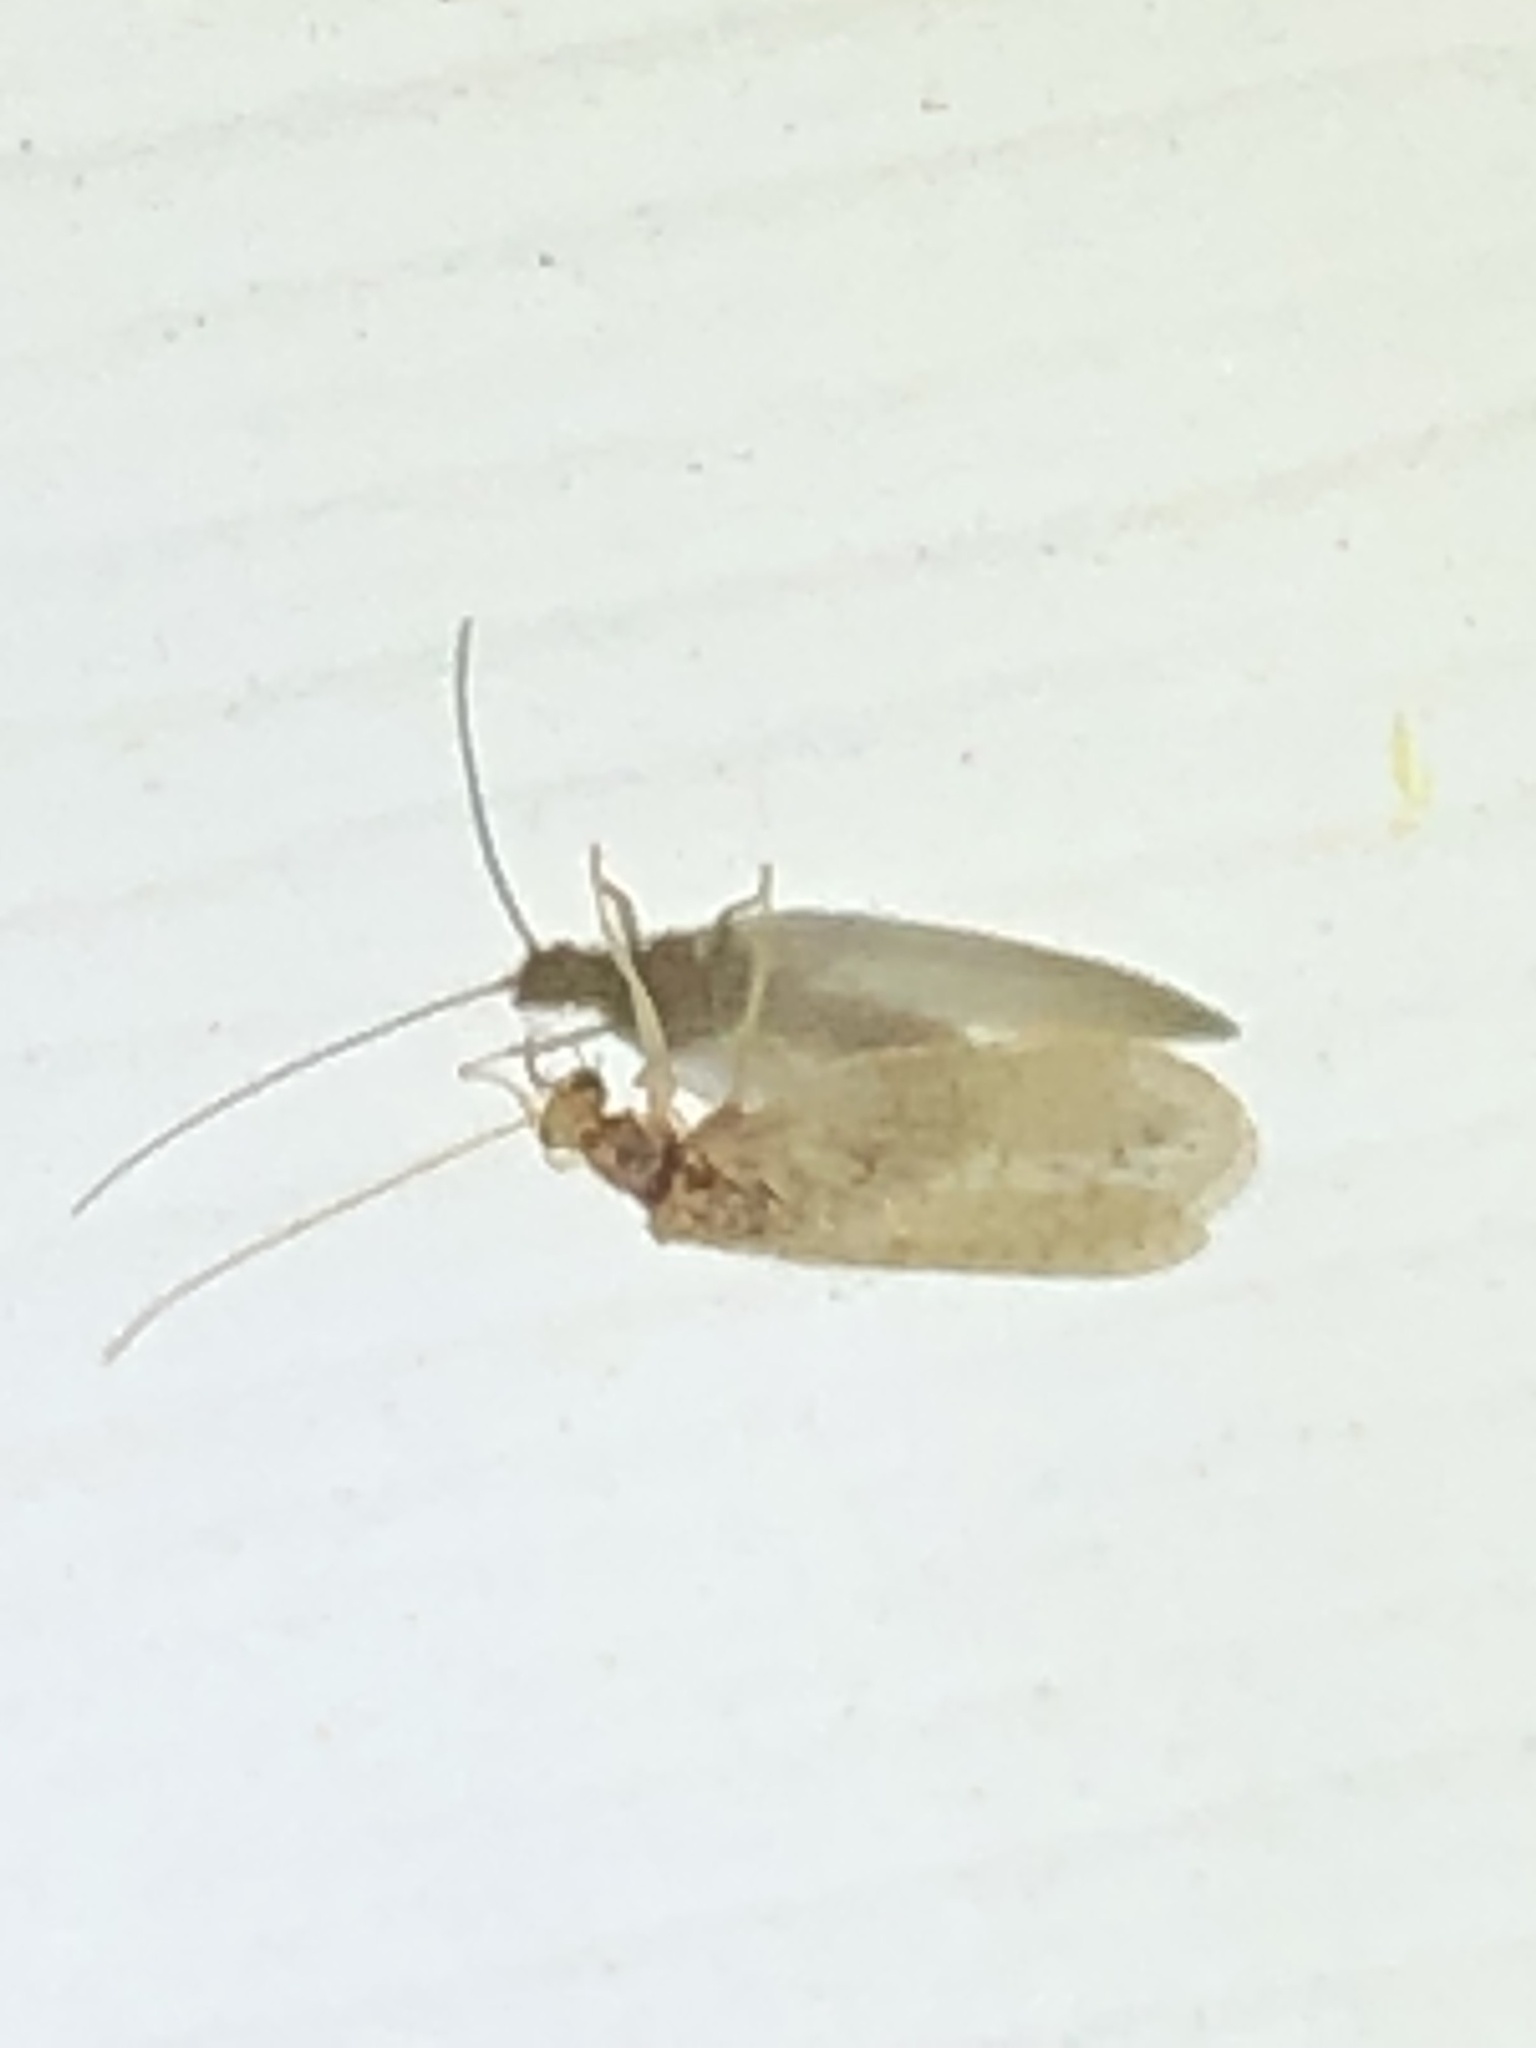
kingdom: Animalia
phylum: Arthropoda
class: Insecta
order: Neuroptera
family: Hemerobiidae
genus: Micromus
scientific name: Micromus subanticus
